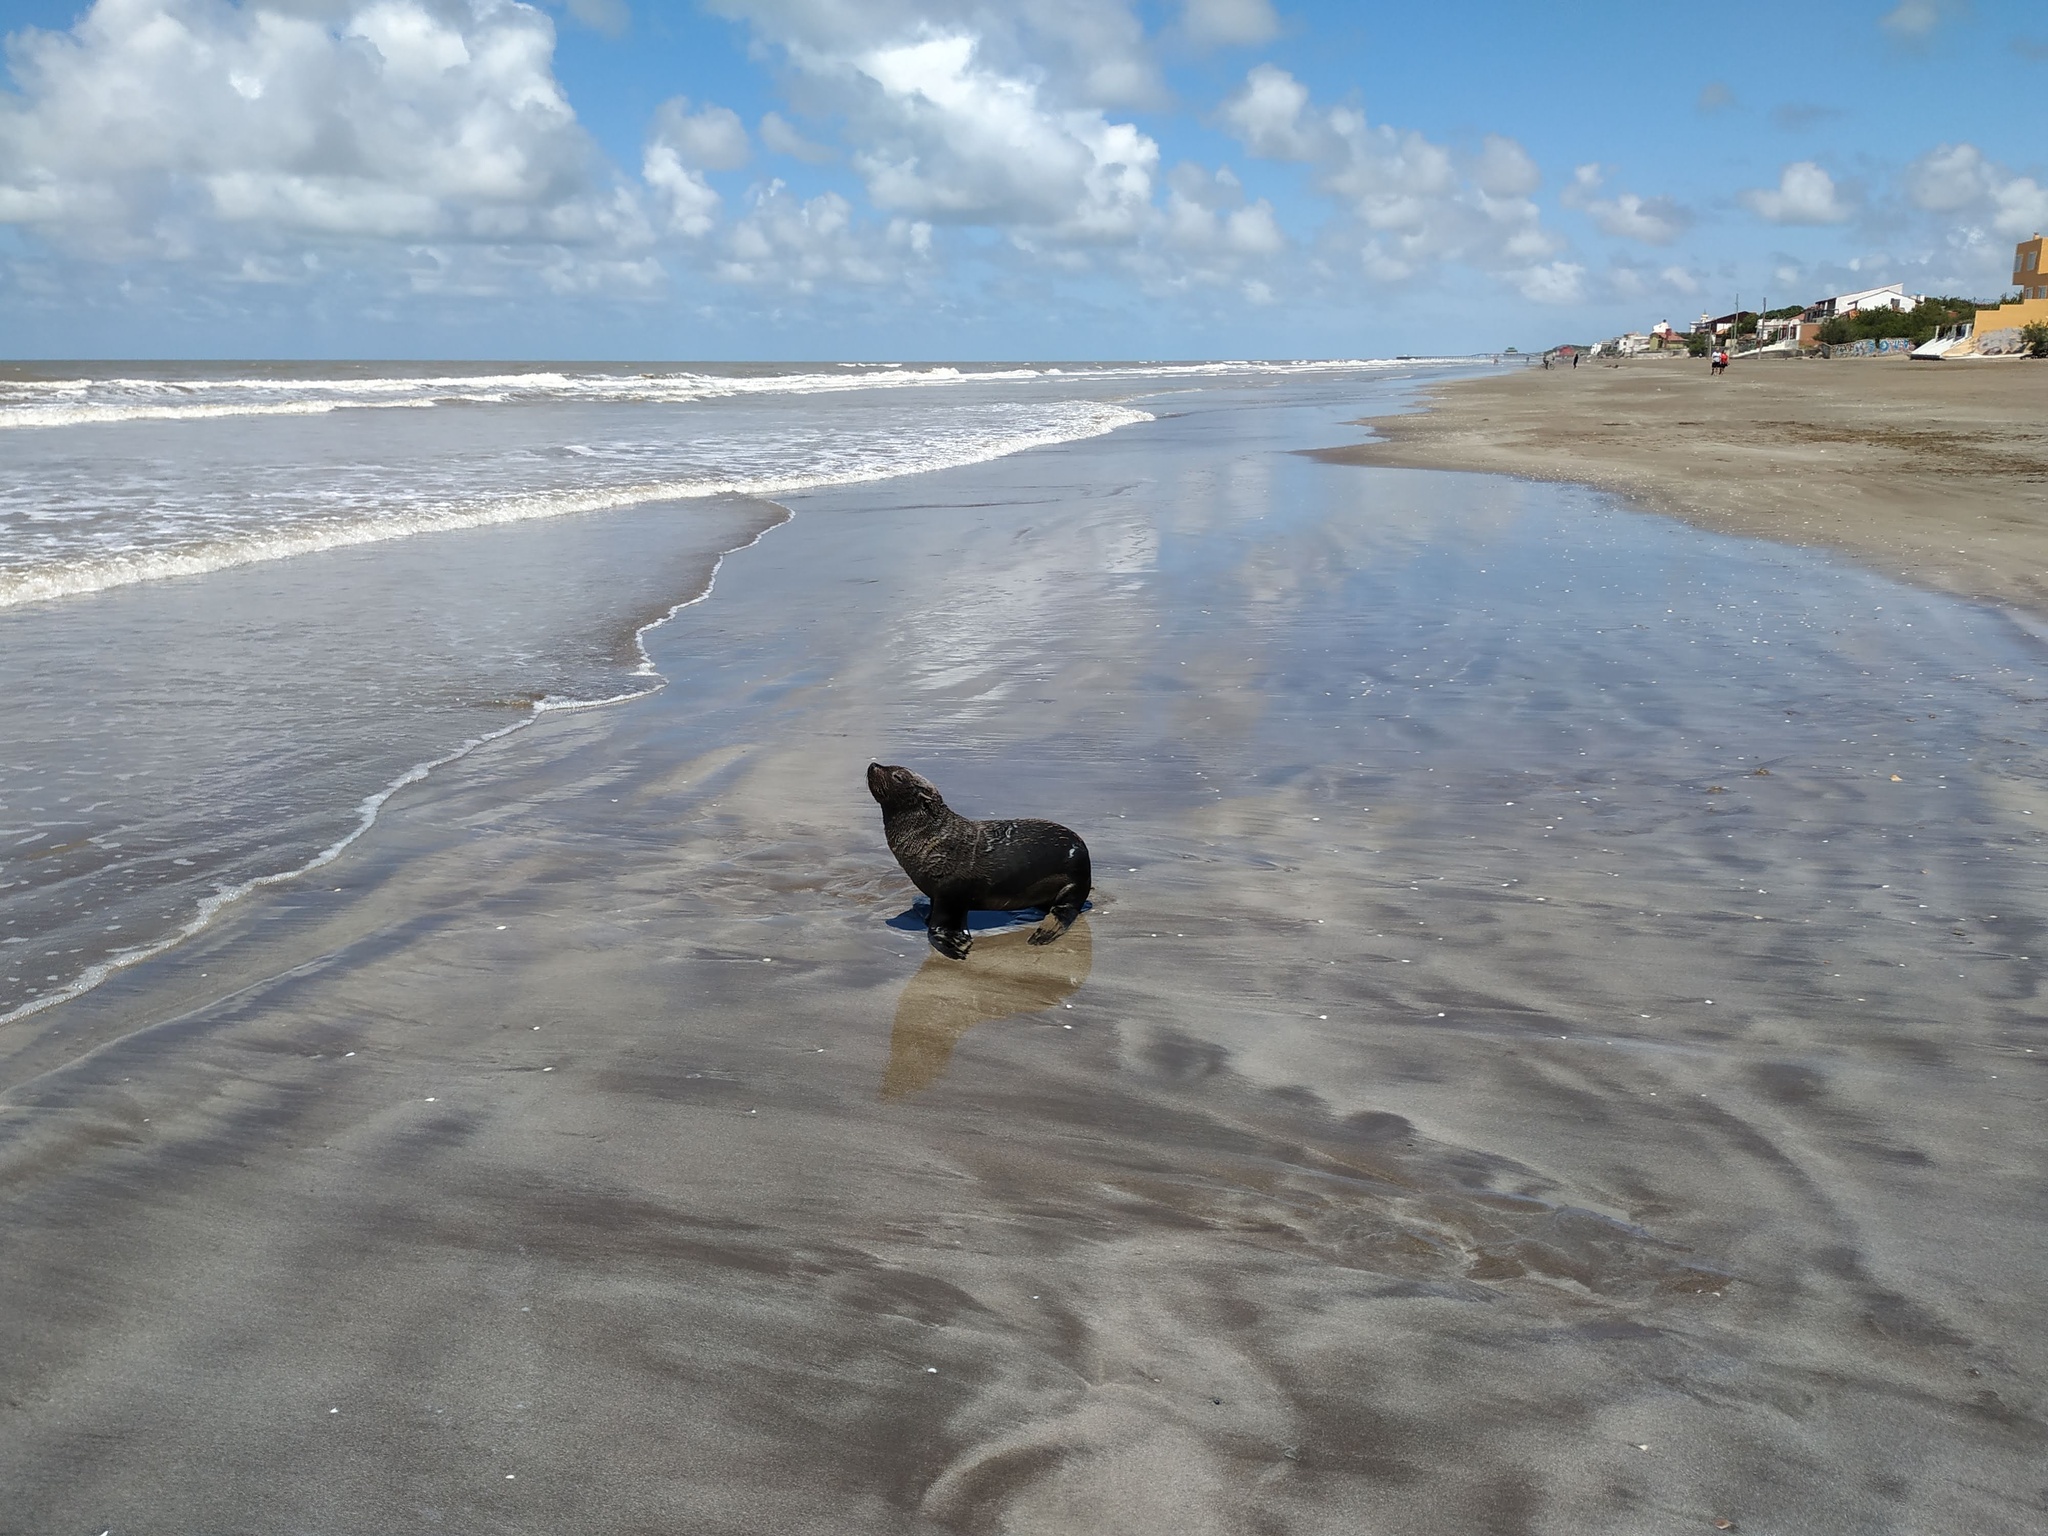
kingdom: Animalia
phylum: Chordata
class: Mammalia
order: Carnivora
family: Otariidae
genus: Arctocephalus
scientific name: Arctocephalus australis
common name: South american fur seal
